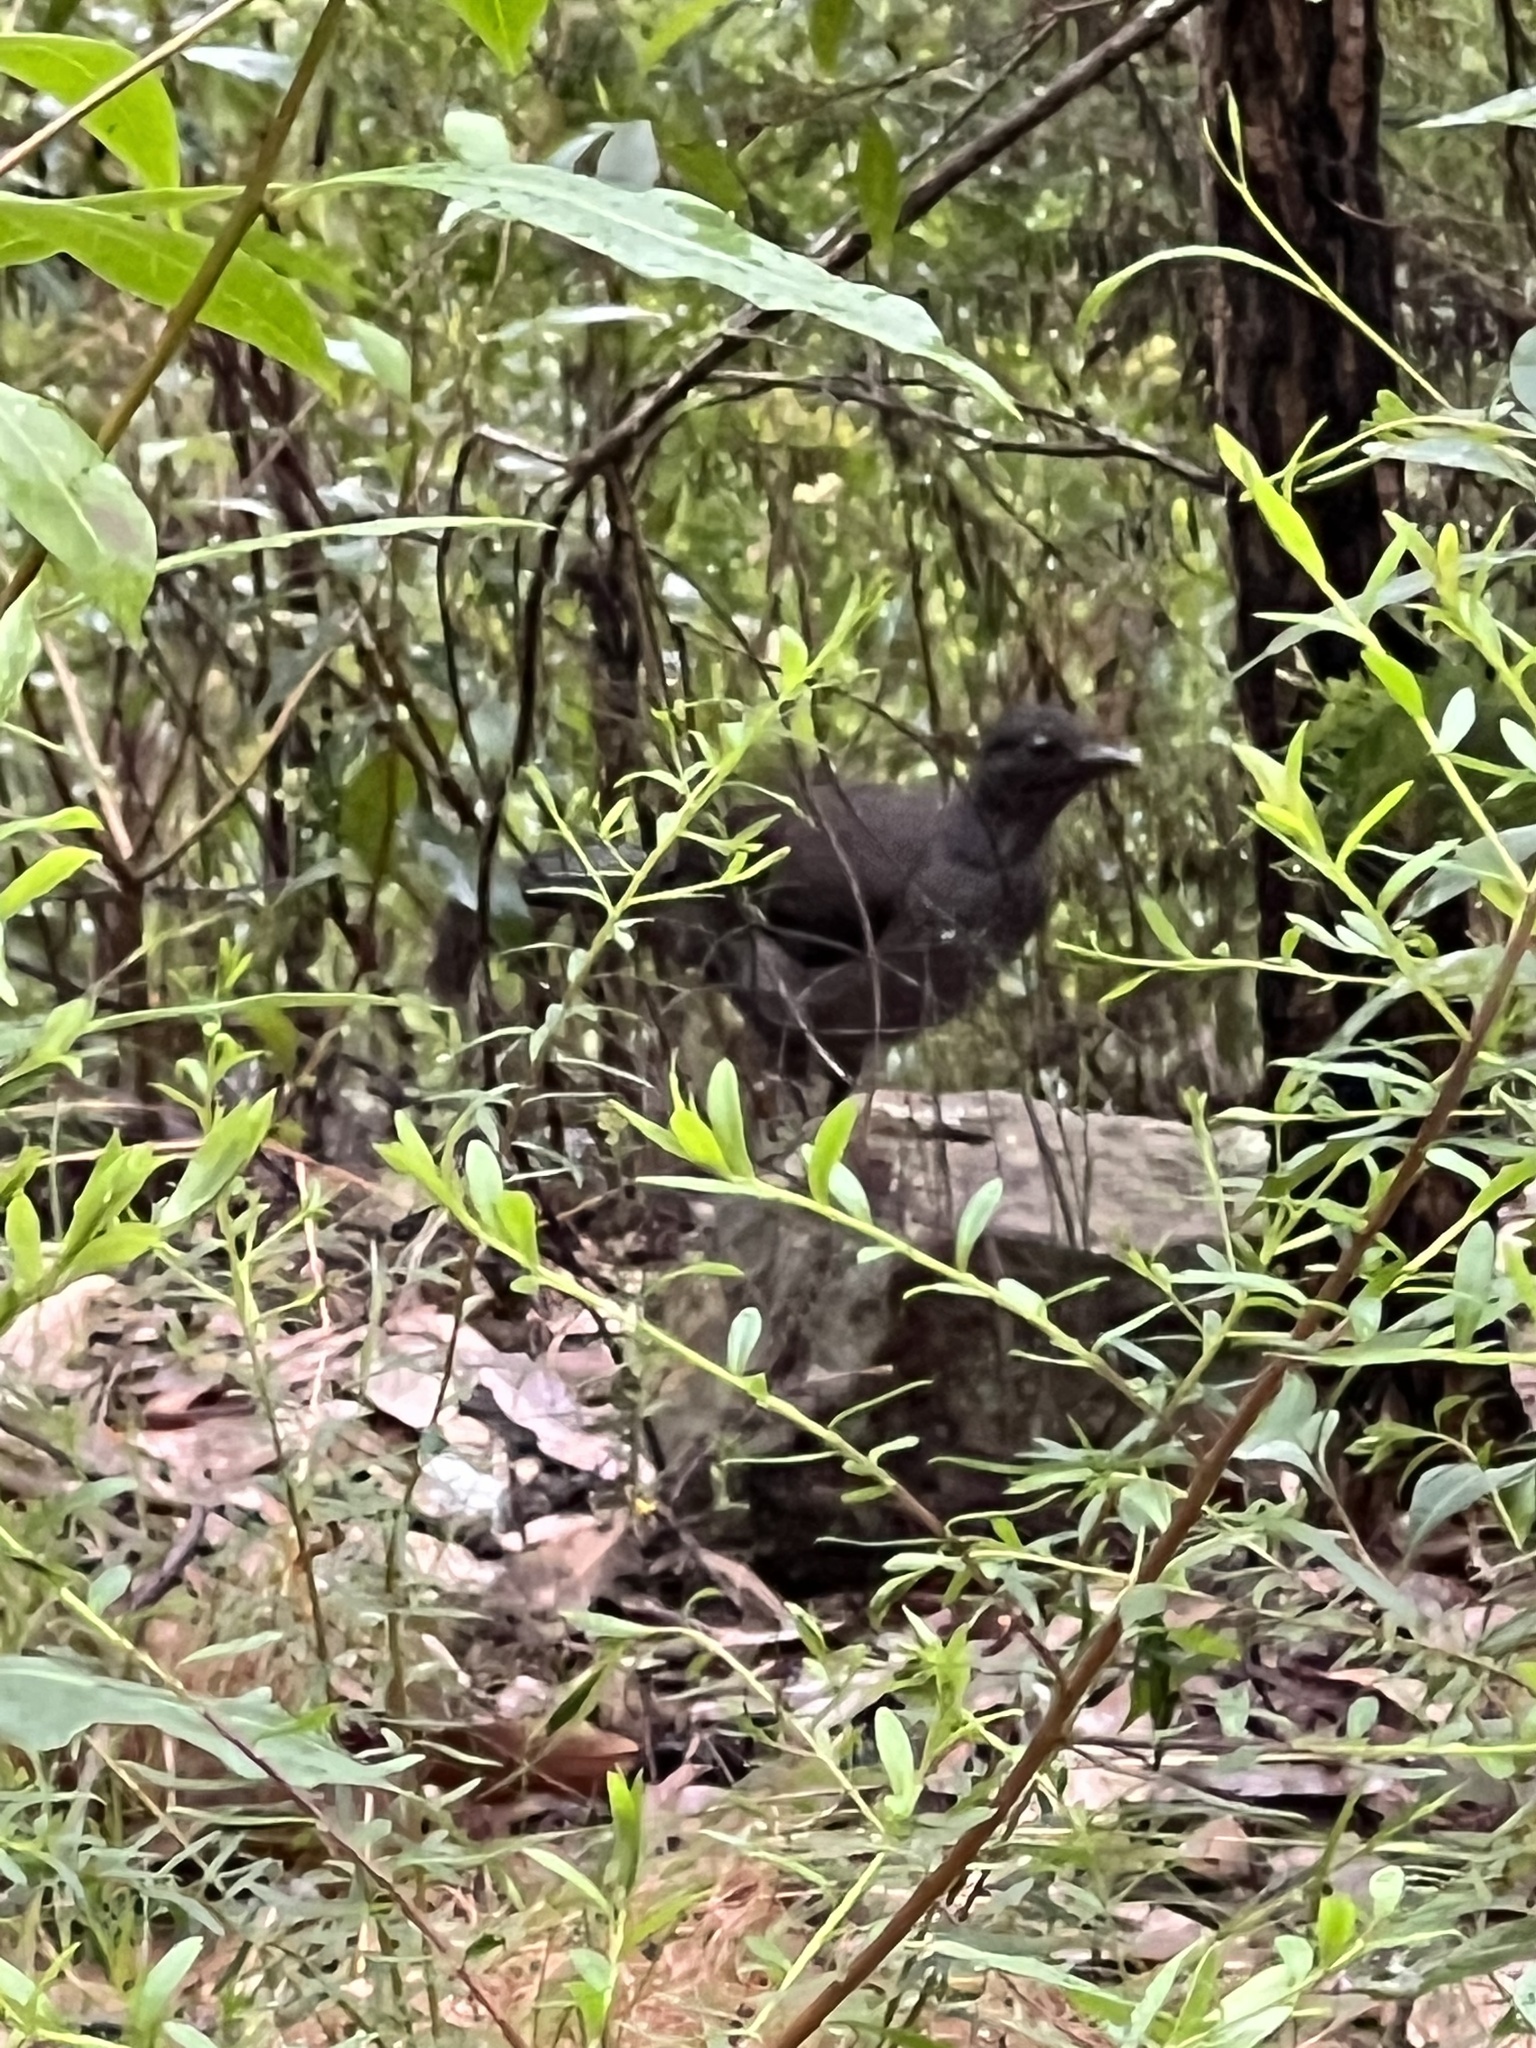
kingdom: Animalia
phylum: Chordata
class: Aves
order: Passeriformes
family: Menuridae
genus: Menura
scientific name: Menura novaehollandiae
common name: Superb lyrebird
